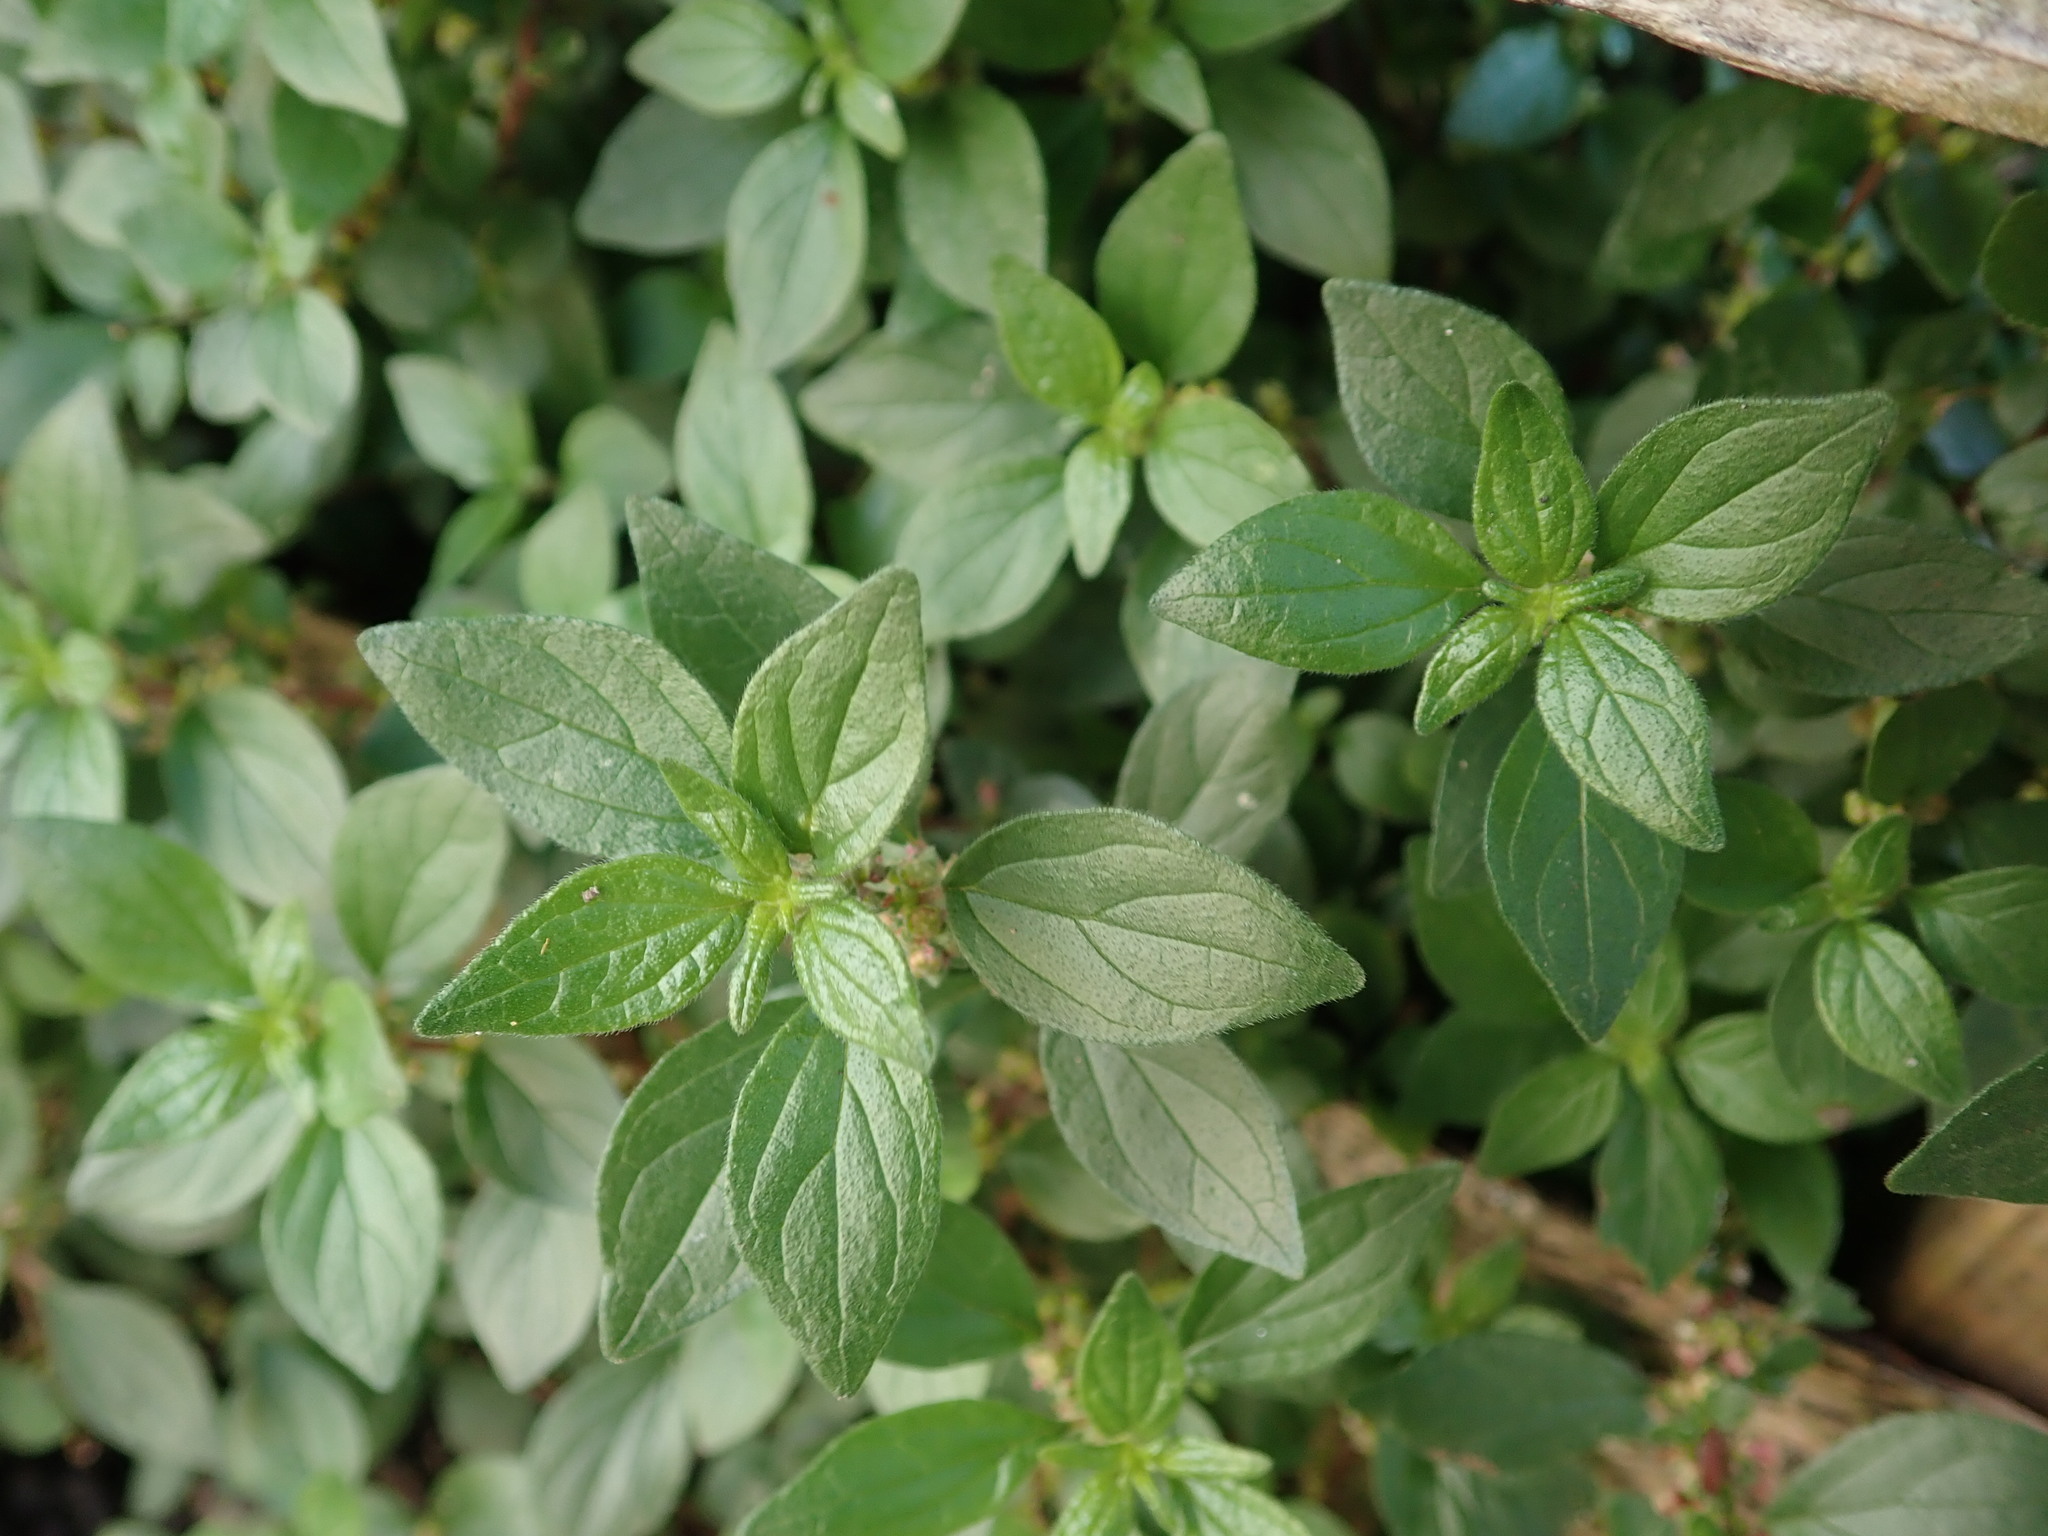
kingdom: Plantae
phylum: Tracheophyta
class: Magnoliopsida
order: Rosales
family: Urticaceae
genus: Parietaria
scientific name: Parietaria judaica
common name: Pellitory-of-the-wall
